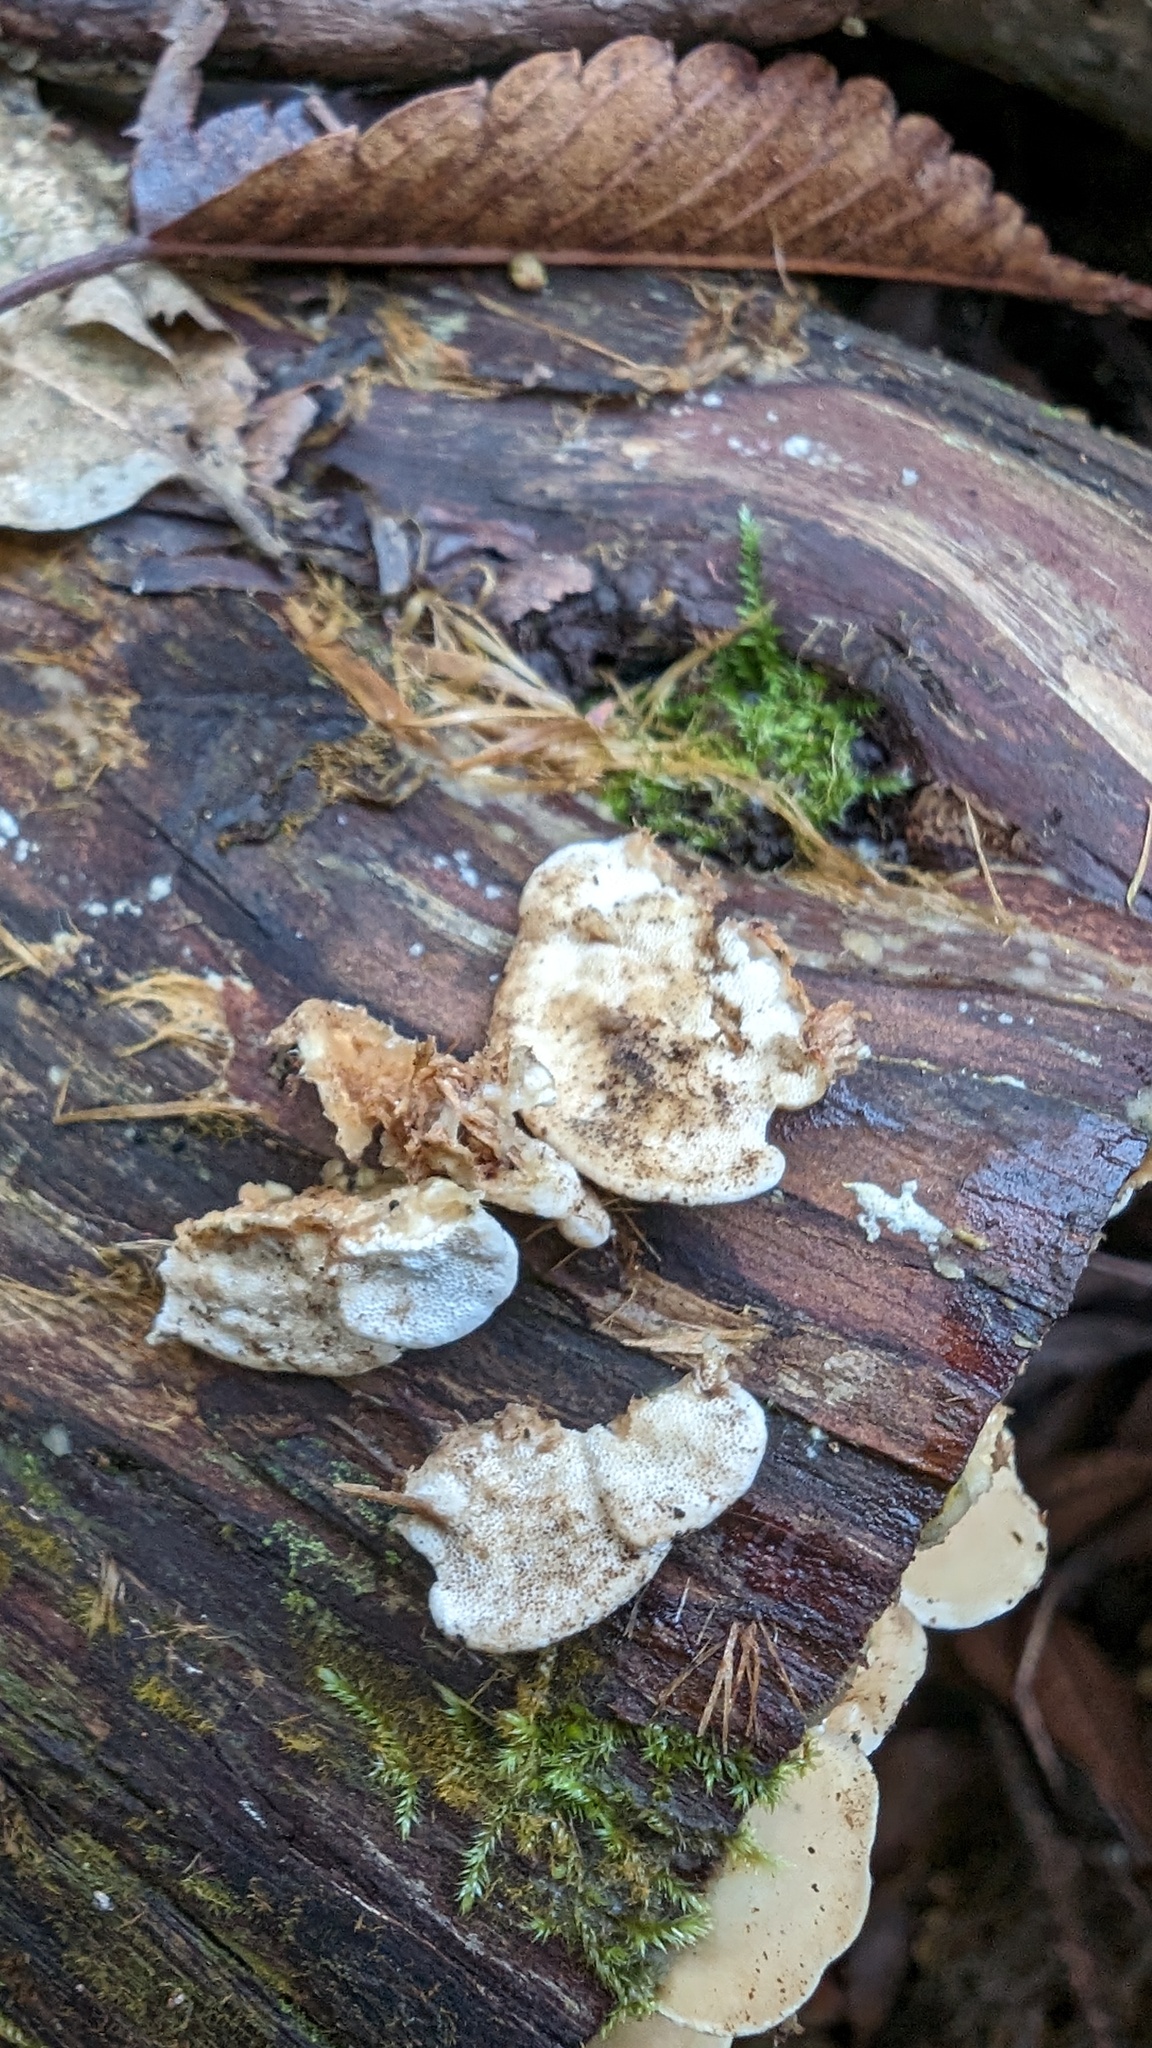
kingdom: Fungi
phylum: Basidiomycota
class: Agaricomycetes
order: Hymenochaetales
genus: Cyanotrama
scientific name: Cyanotrama
